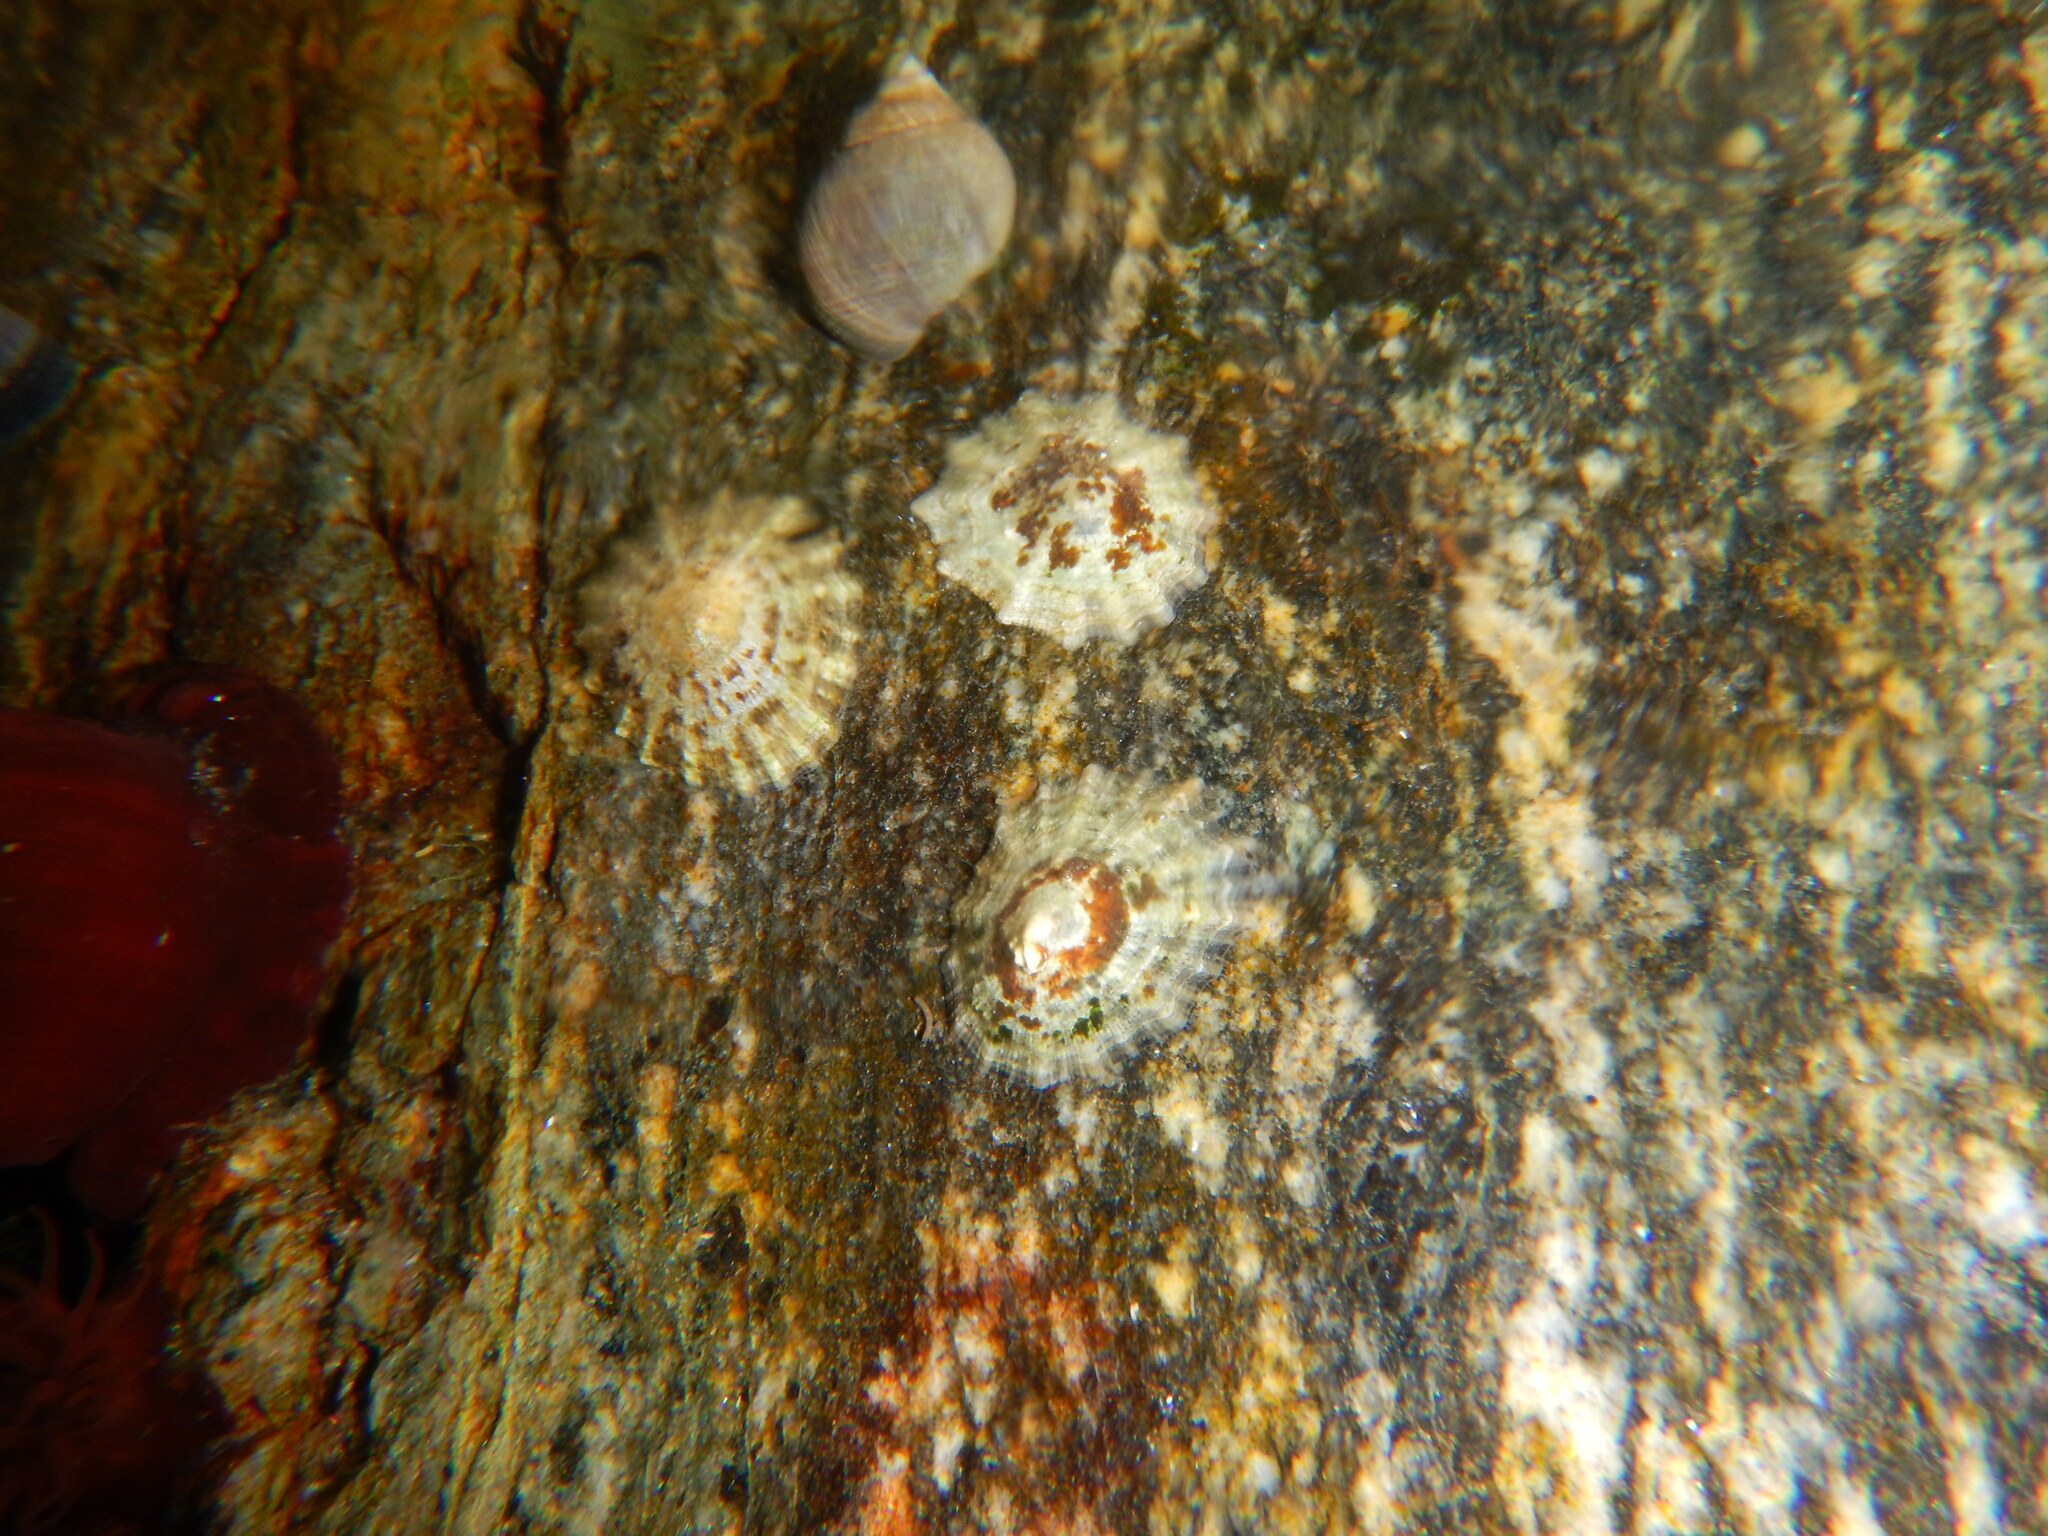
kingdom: Animalia
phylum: Mollusca
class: Gastropoda
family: Patellidae
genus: Patella
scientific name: Patella vulgata
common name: Common limpet
